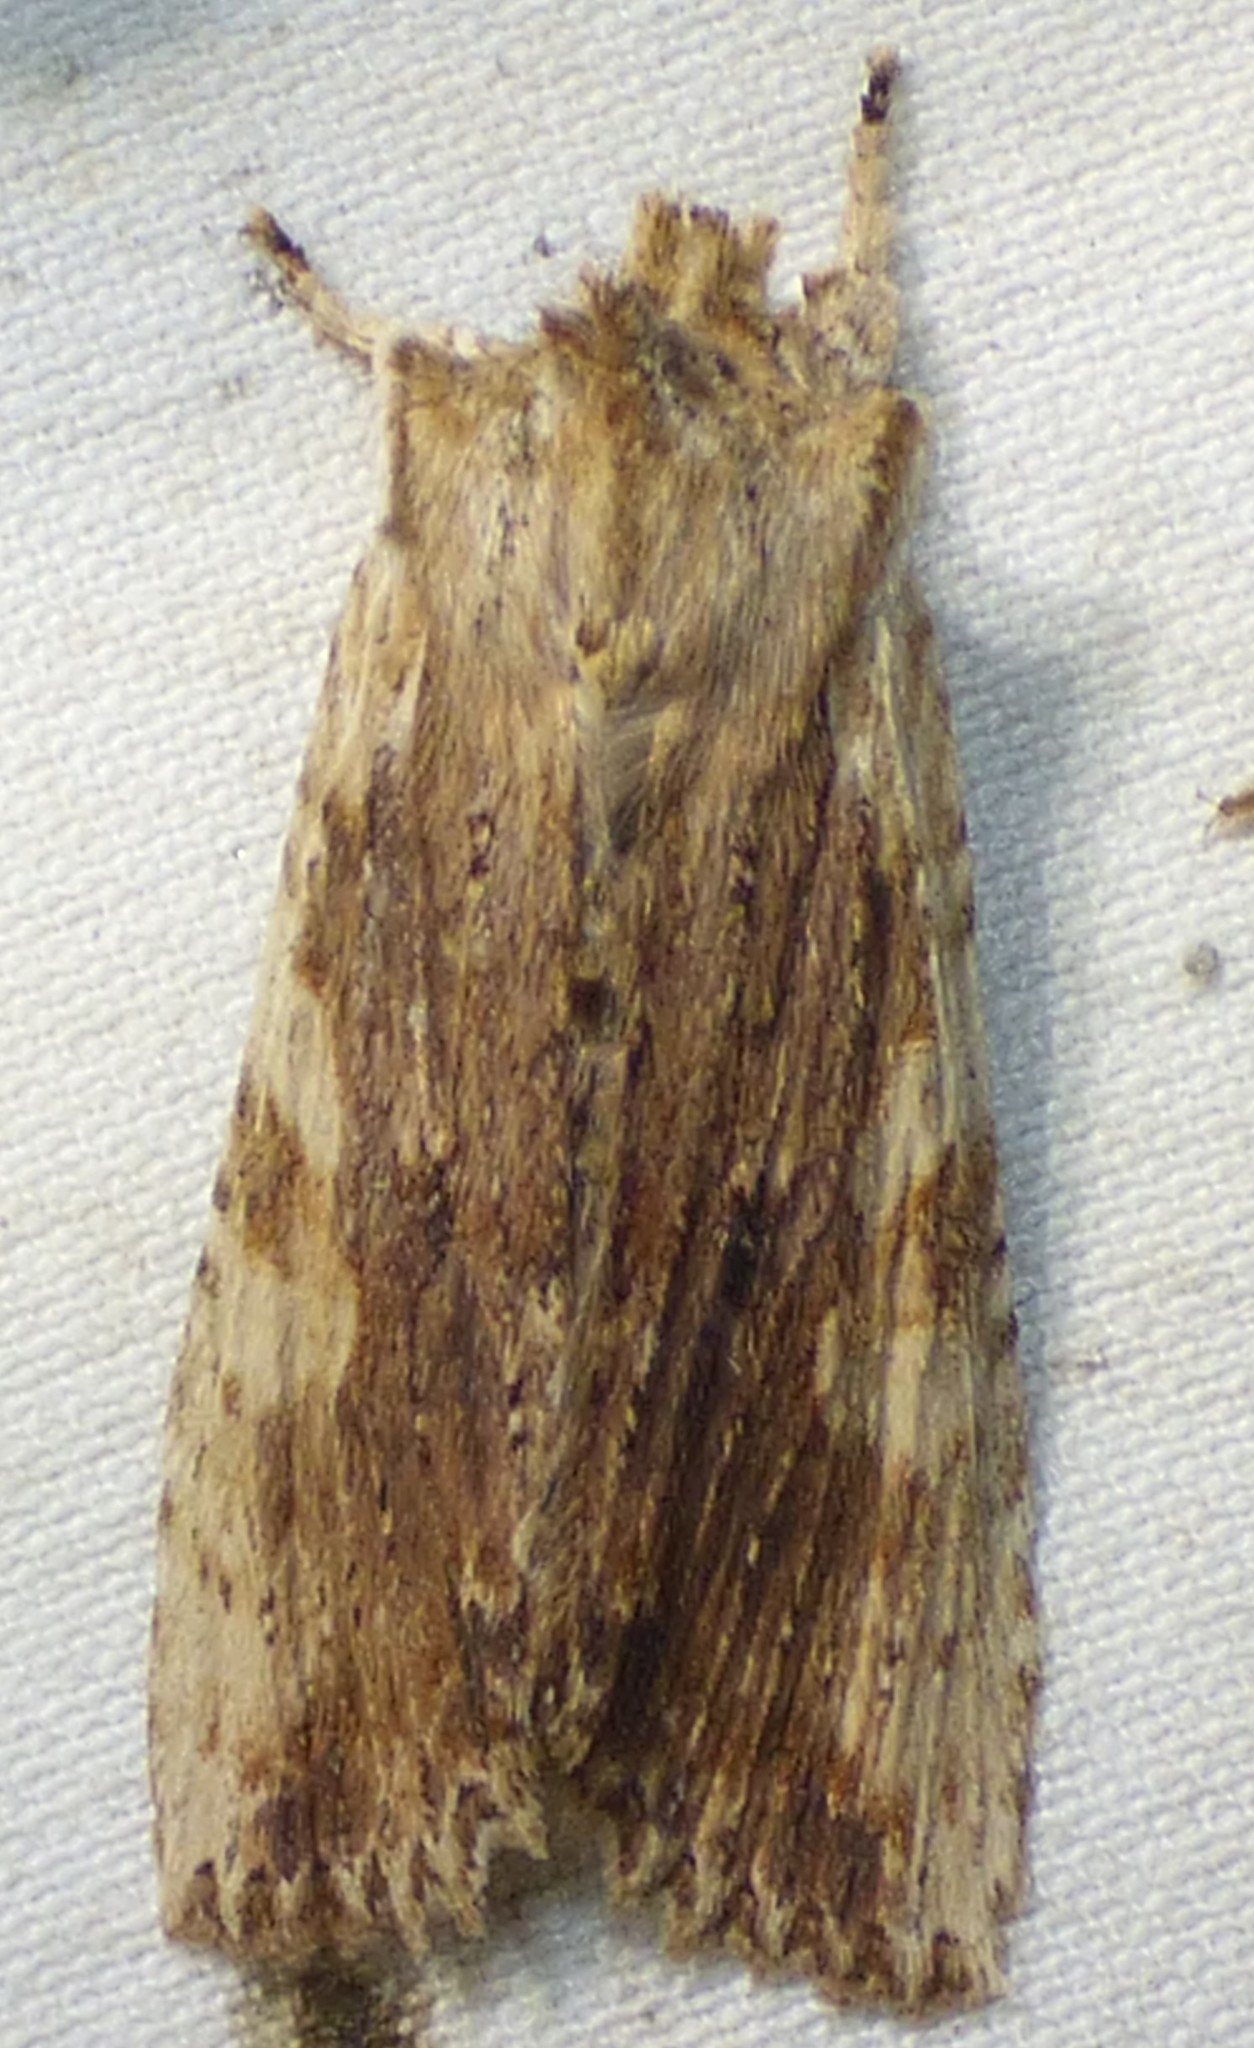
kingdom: Animalia
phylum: Arthropoda
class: Insecta
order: Lepidoptera
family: Noctuidae
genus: Lithophane
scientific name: Lithophane patefacta
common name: Dimorphic pinion moth
